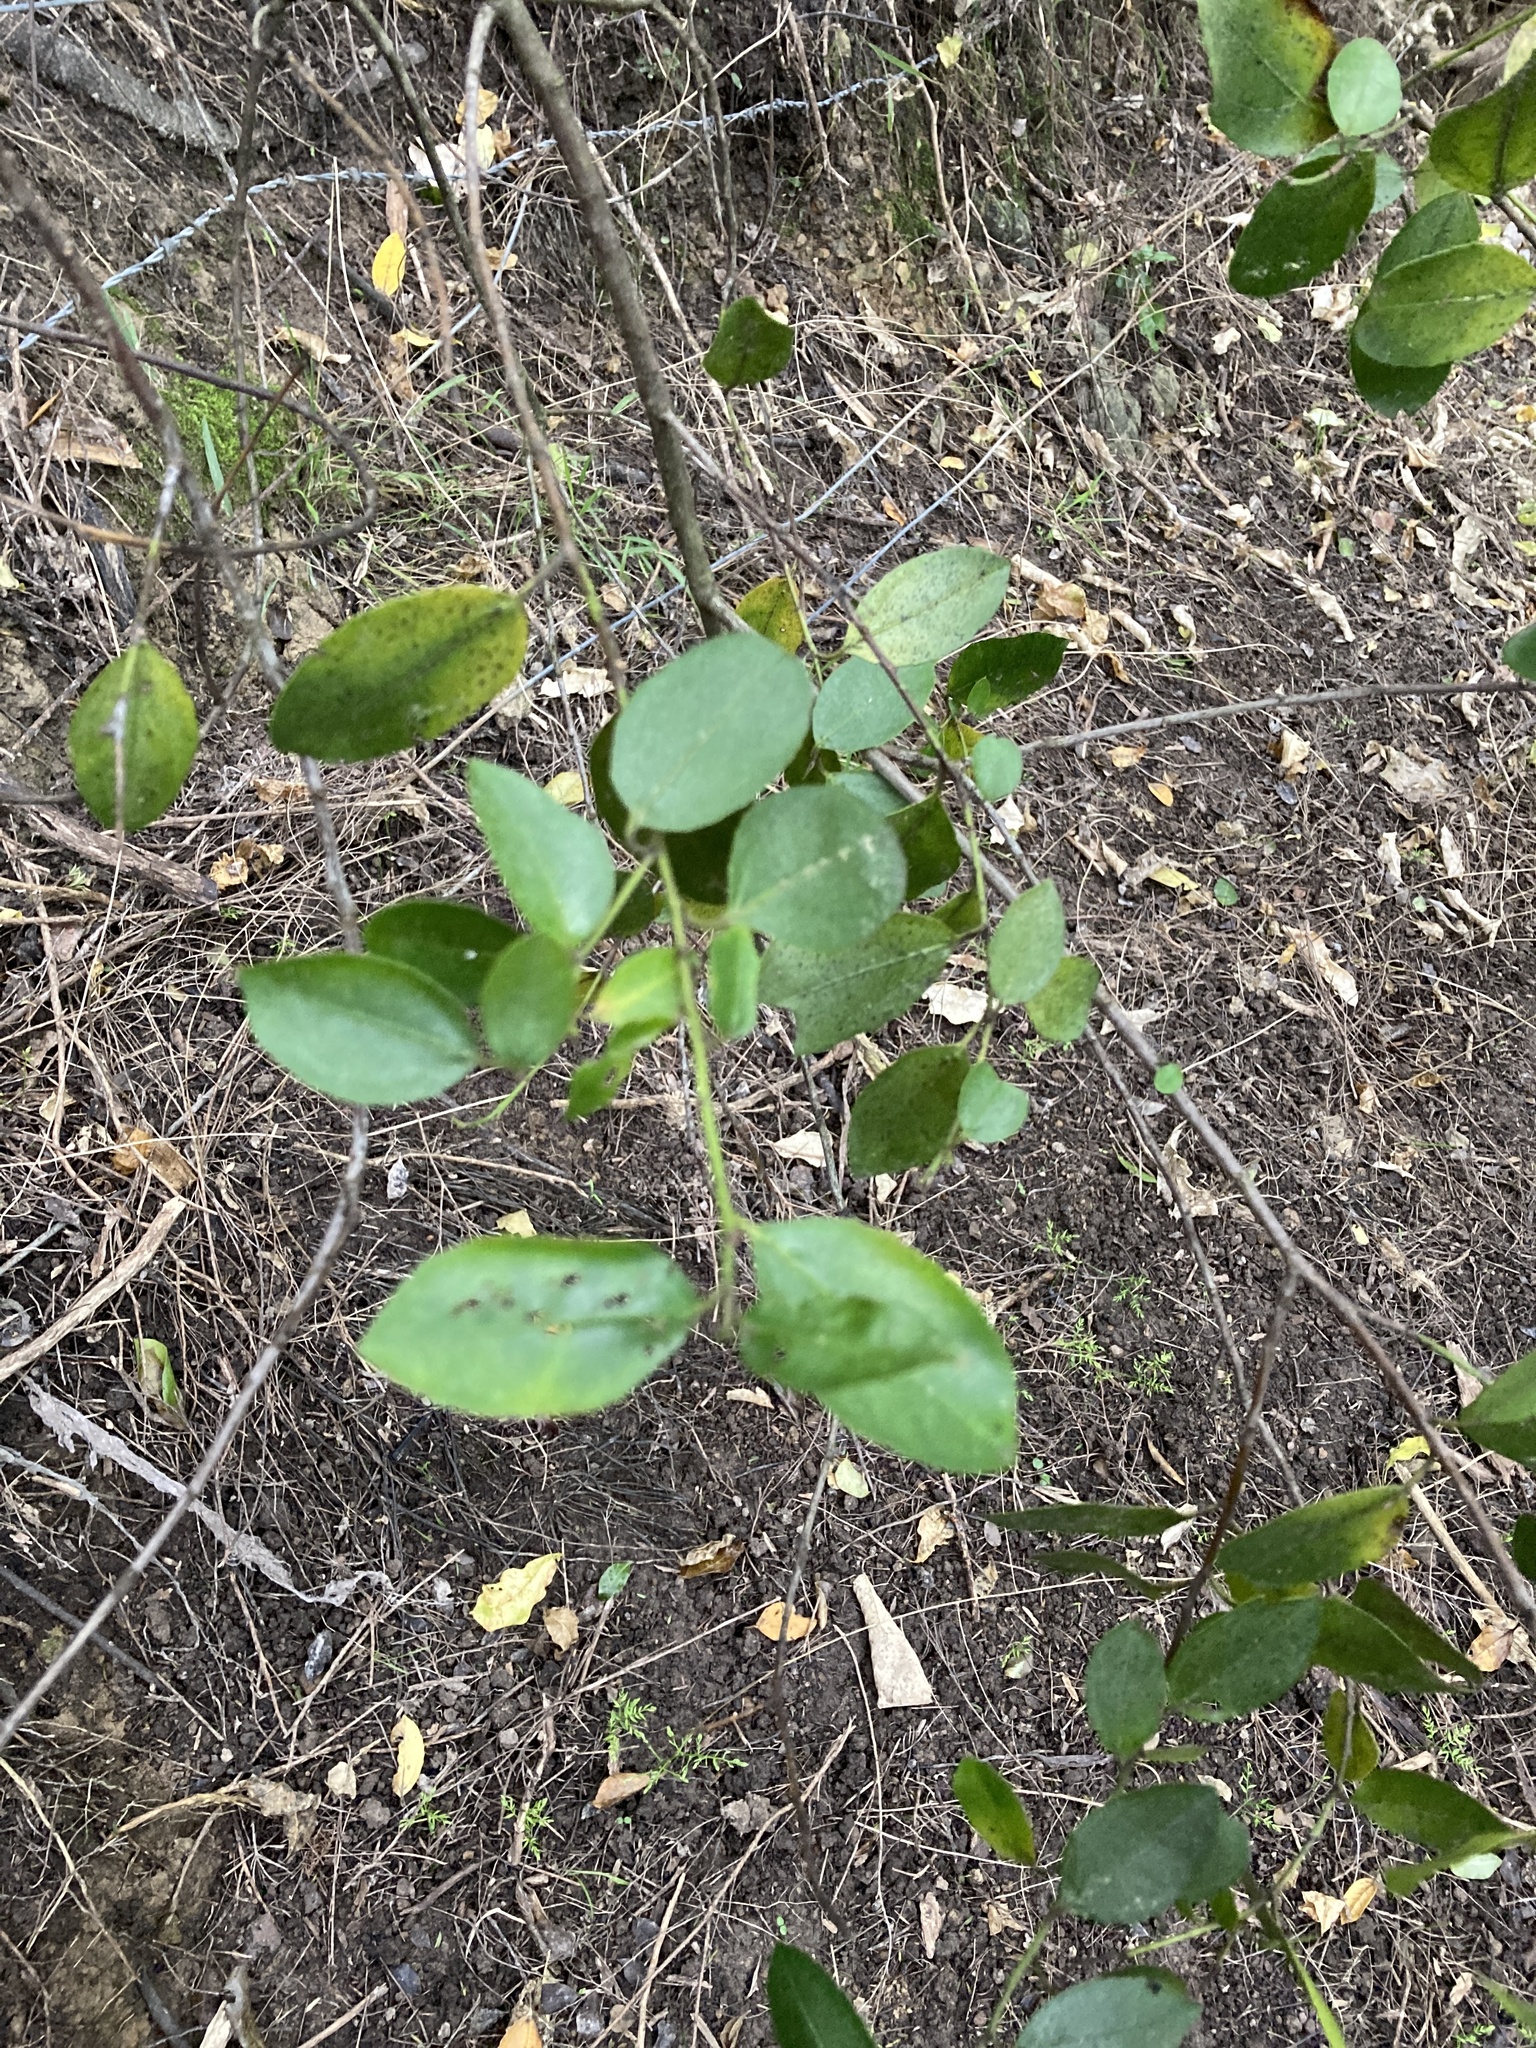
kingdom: Plantae
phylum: Tracheophyta
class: Magnoliopsida
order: Rosales
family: Rhamnaceae
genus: Rhamnus
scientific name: Rhamnus alaternus
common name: Mediterranean buckthorn
